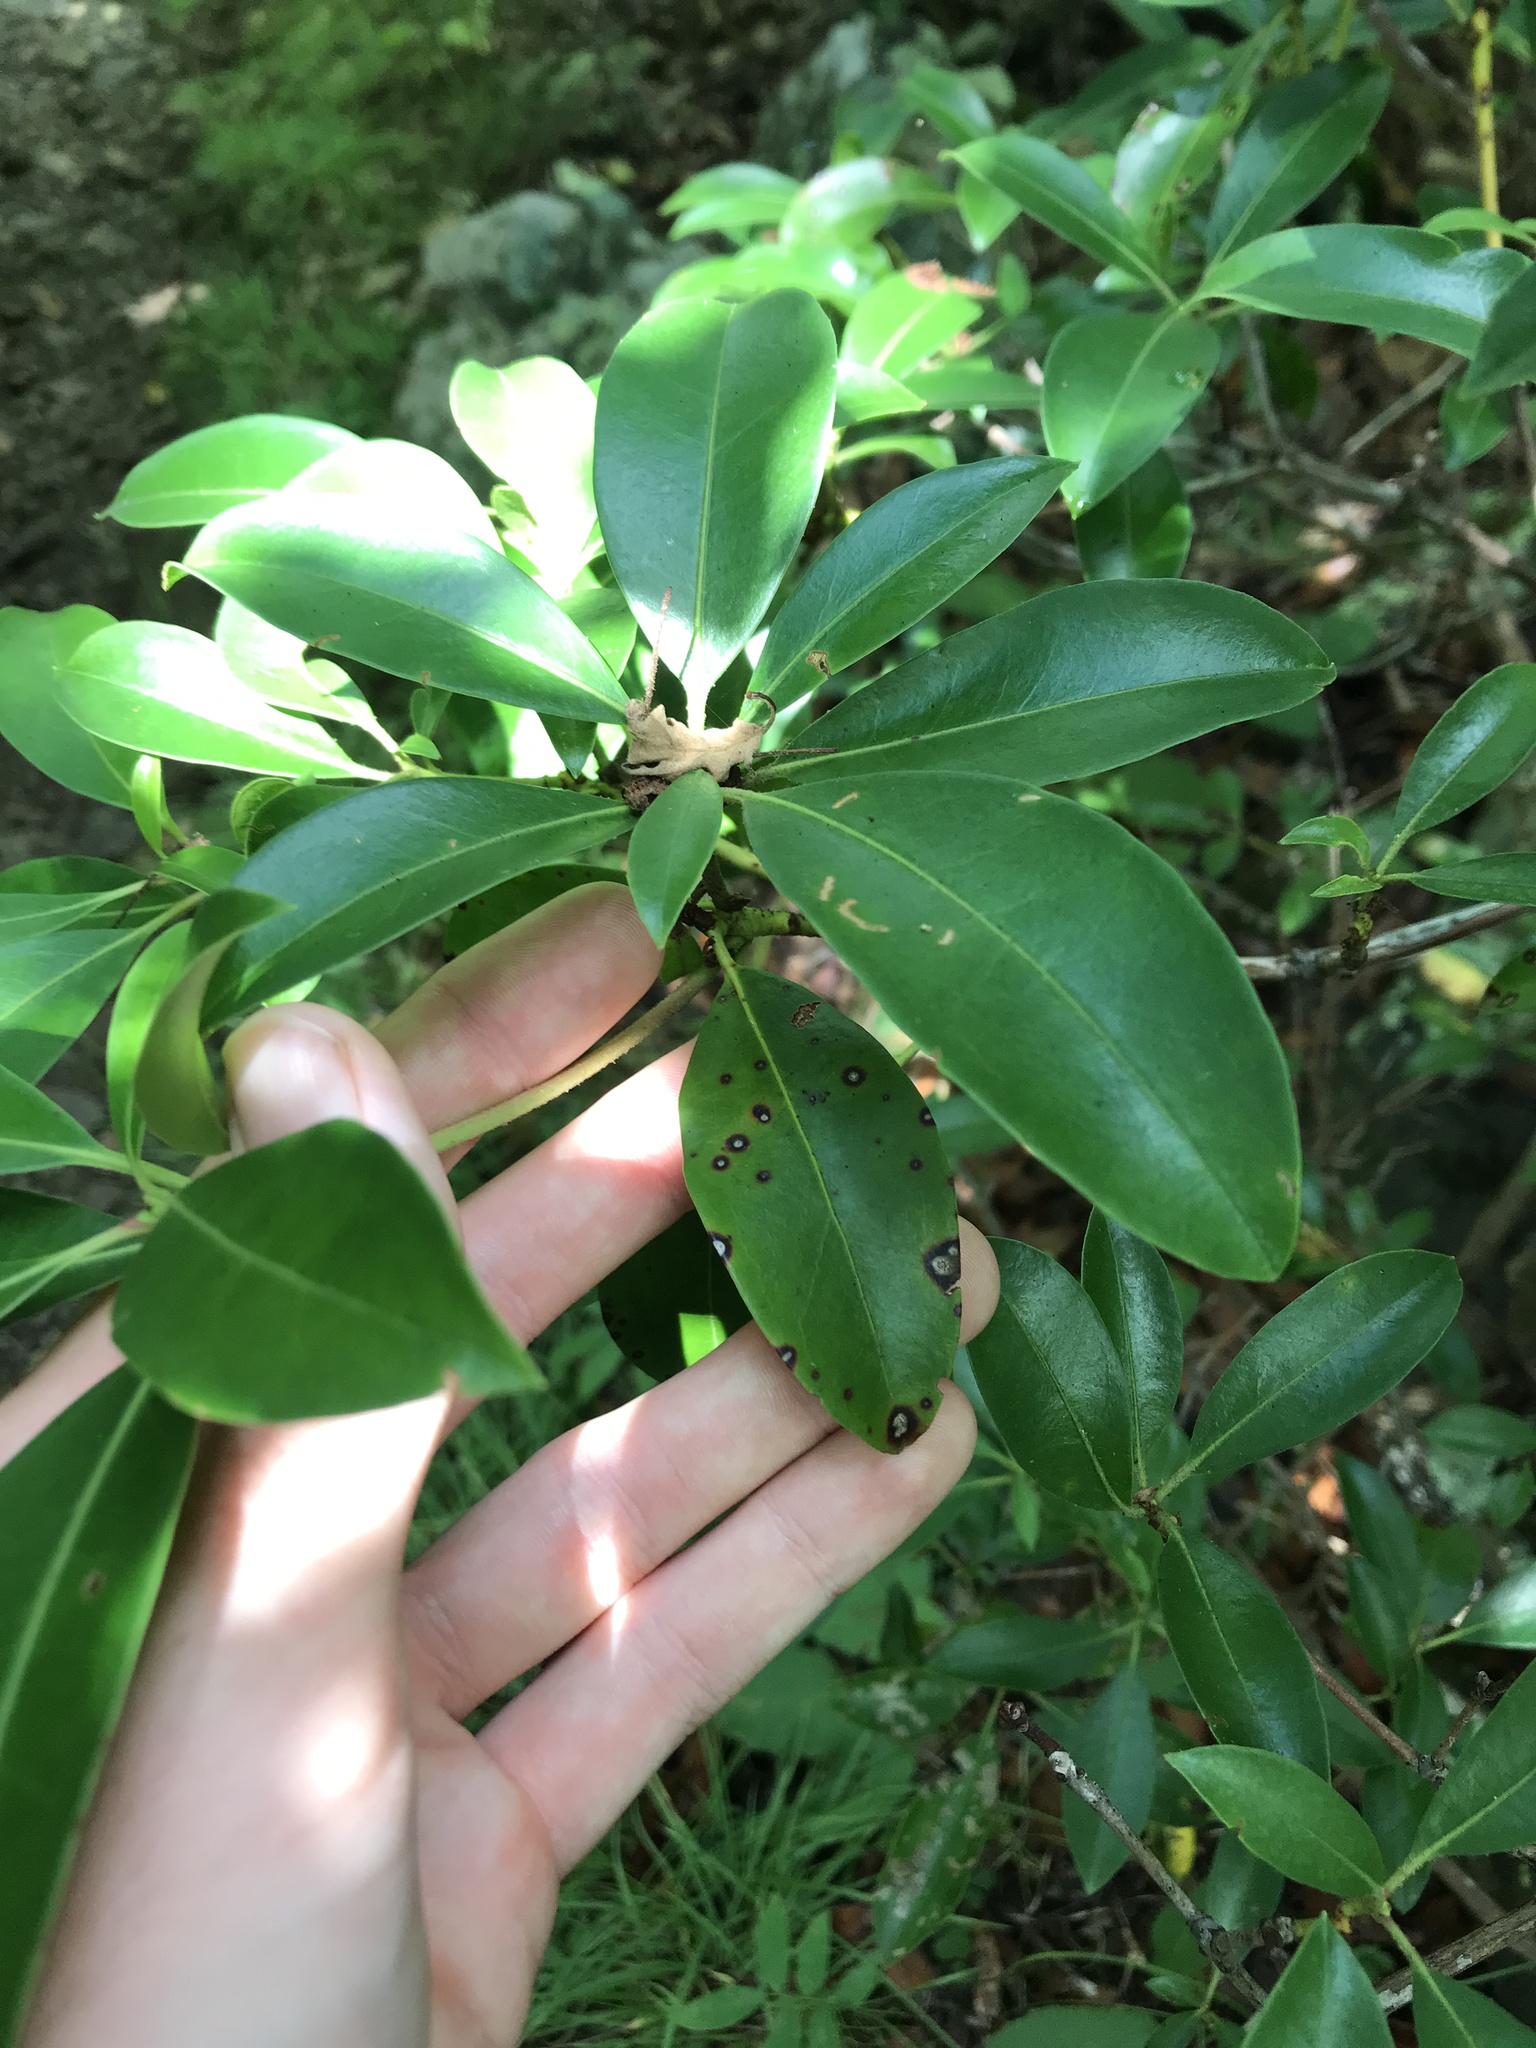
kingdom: Fungi
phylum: Ascomycota
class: Dothideomycetes
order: Mycosphaerellales
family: Mycosphaerellaceae
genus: Mycosphaerella
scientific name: Mycosphaerella colorata
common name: Mountain laurel leaf spot
